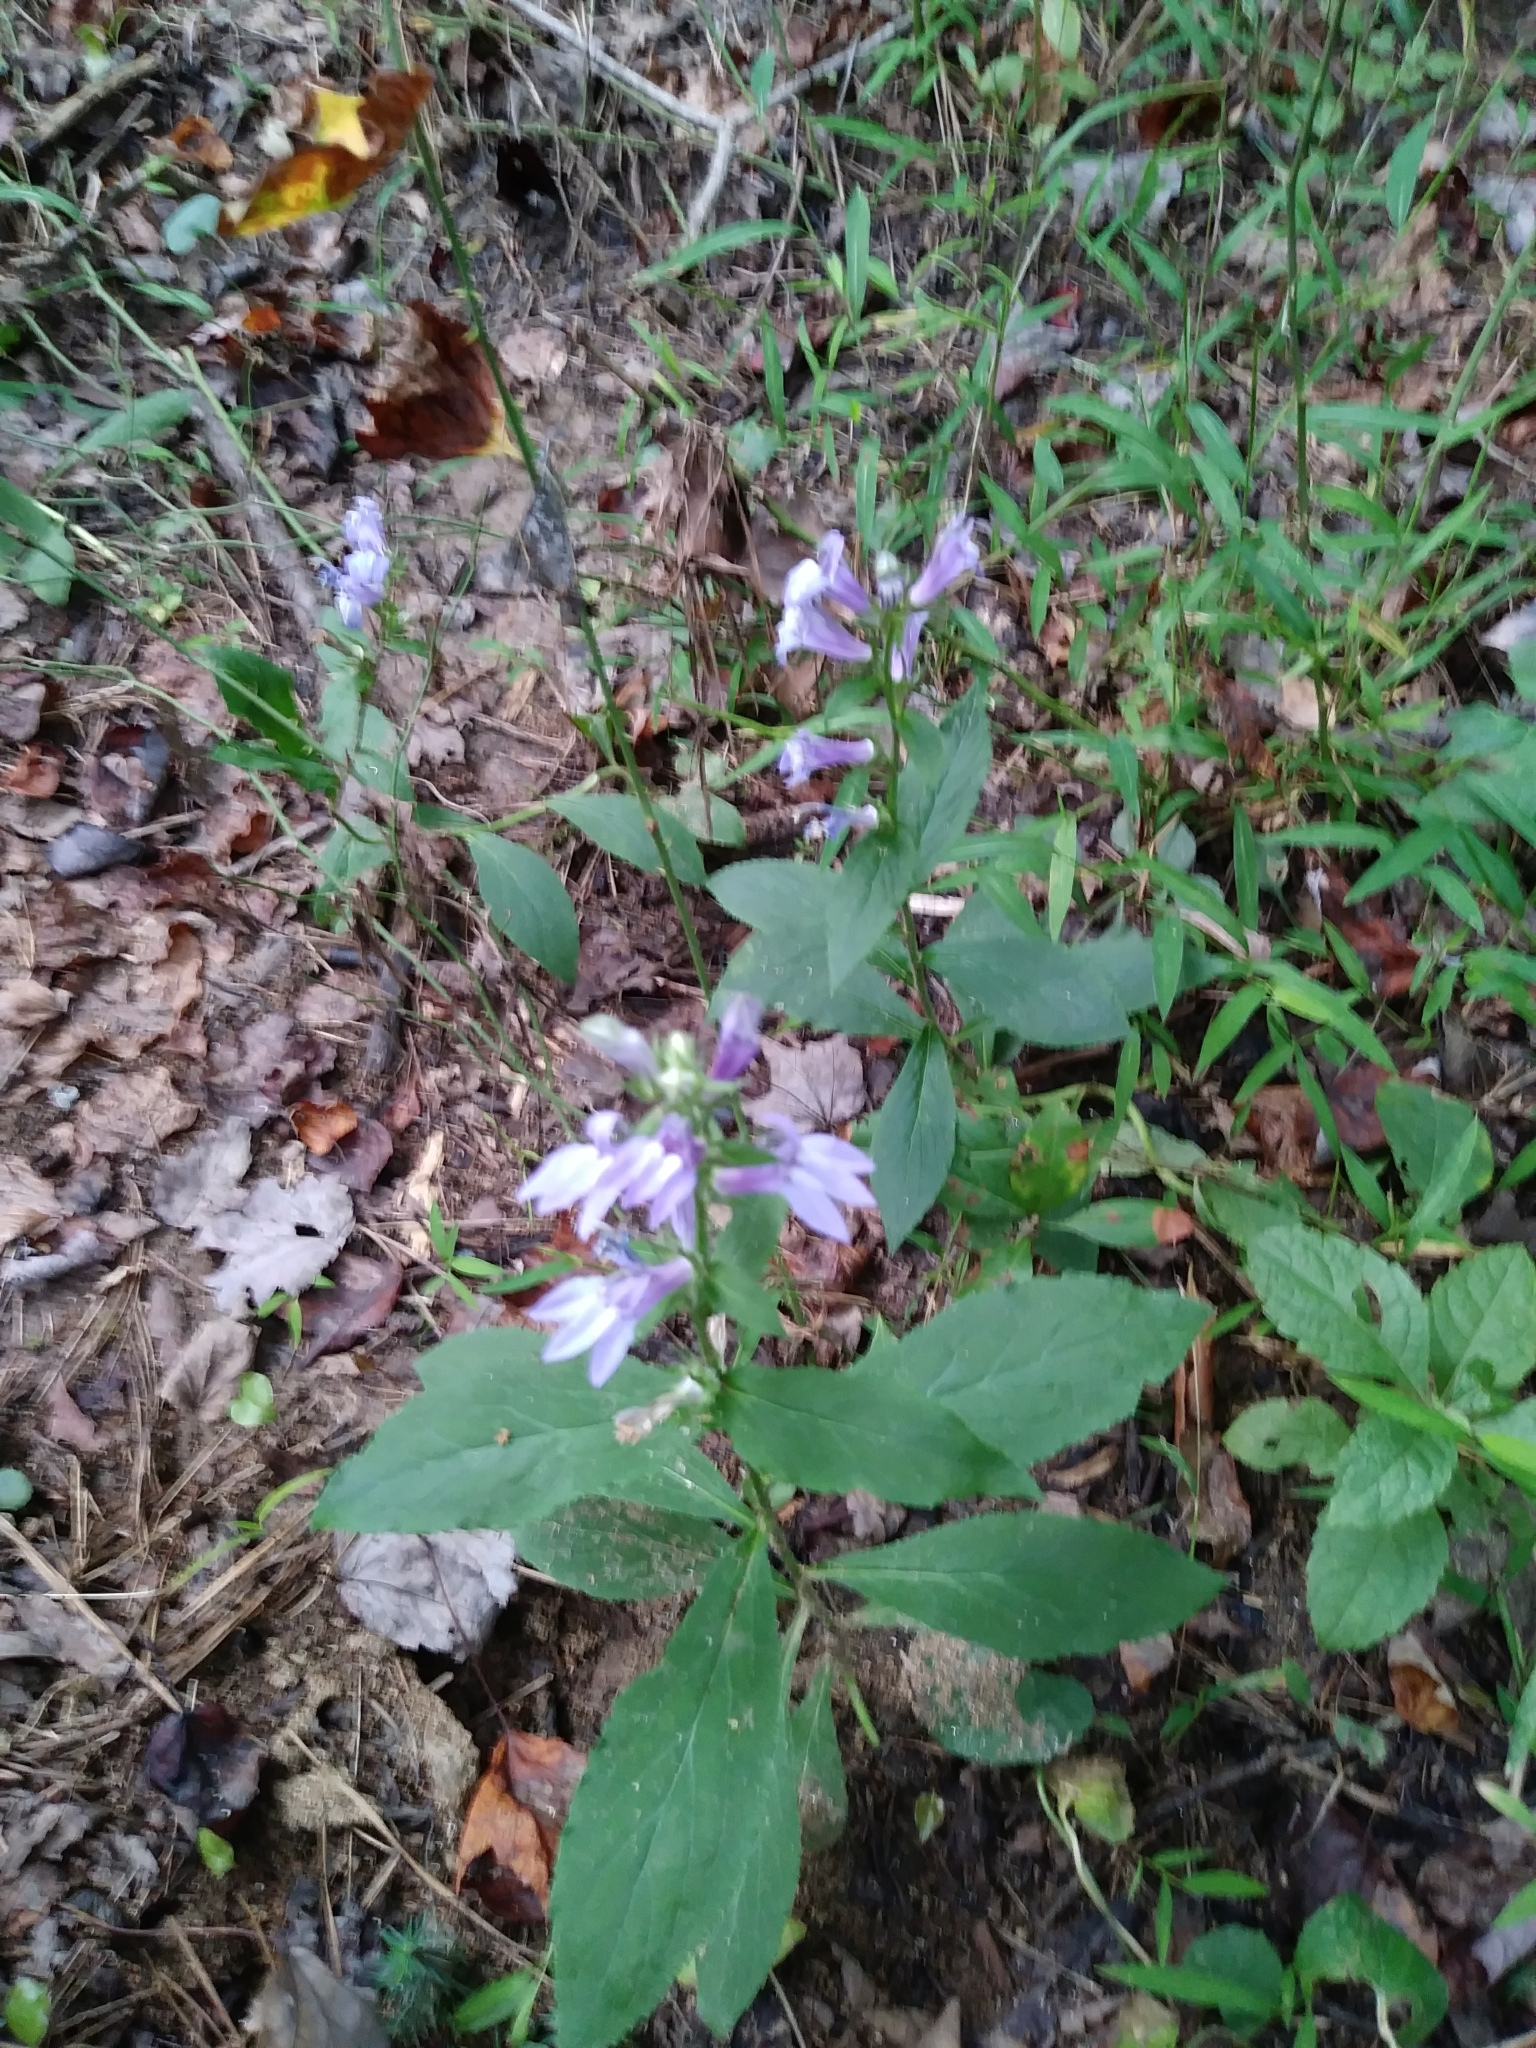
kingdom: Plantae
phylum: Tracheophyta
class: Magnoliopsida
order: Asterales
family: Campanulaceae
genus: Lobelia
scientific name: Lobelia siphilitica
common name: Great lobelia
